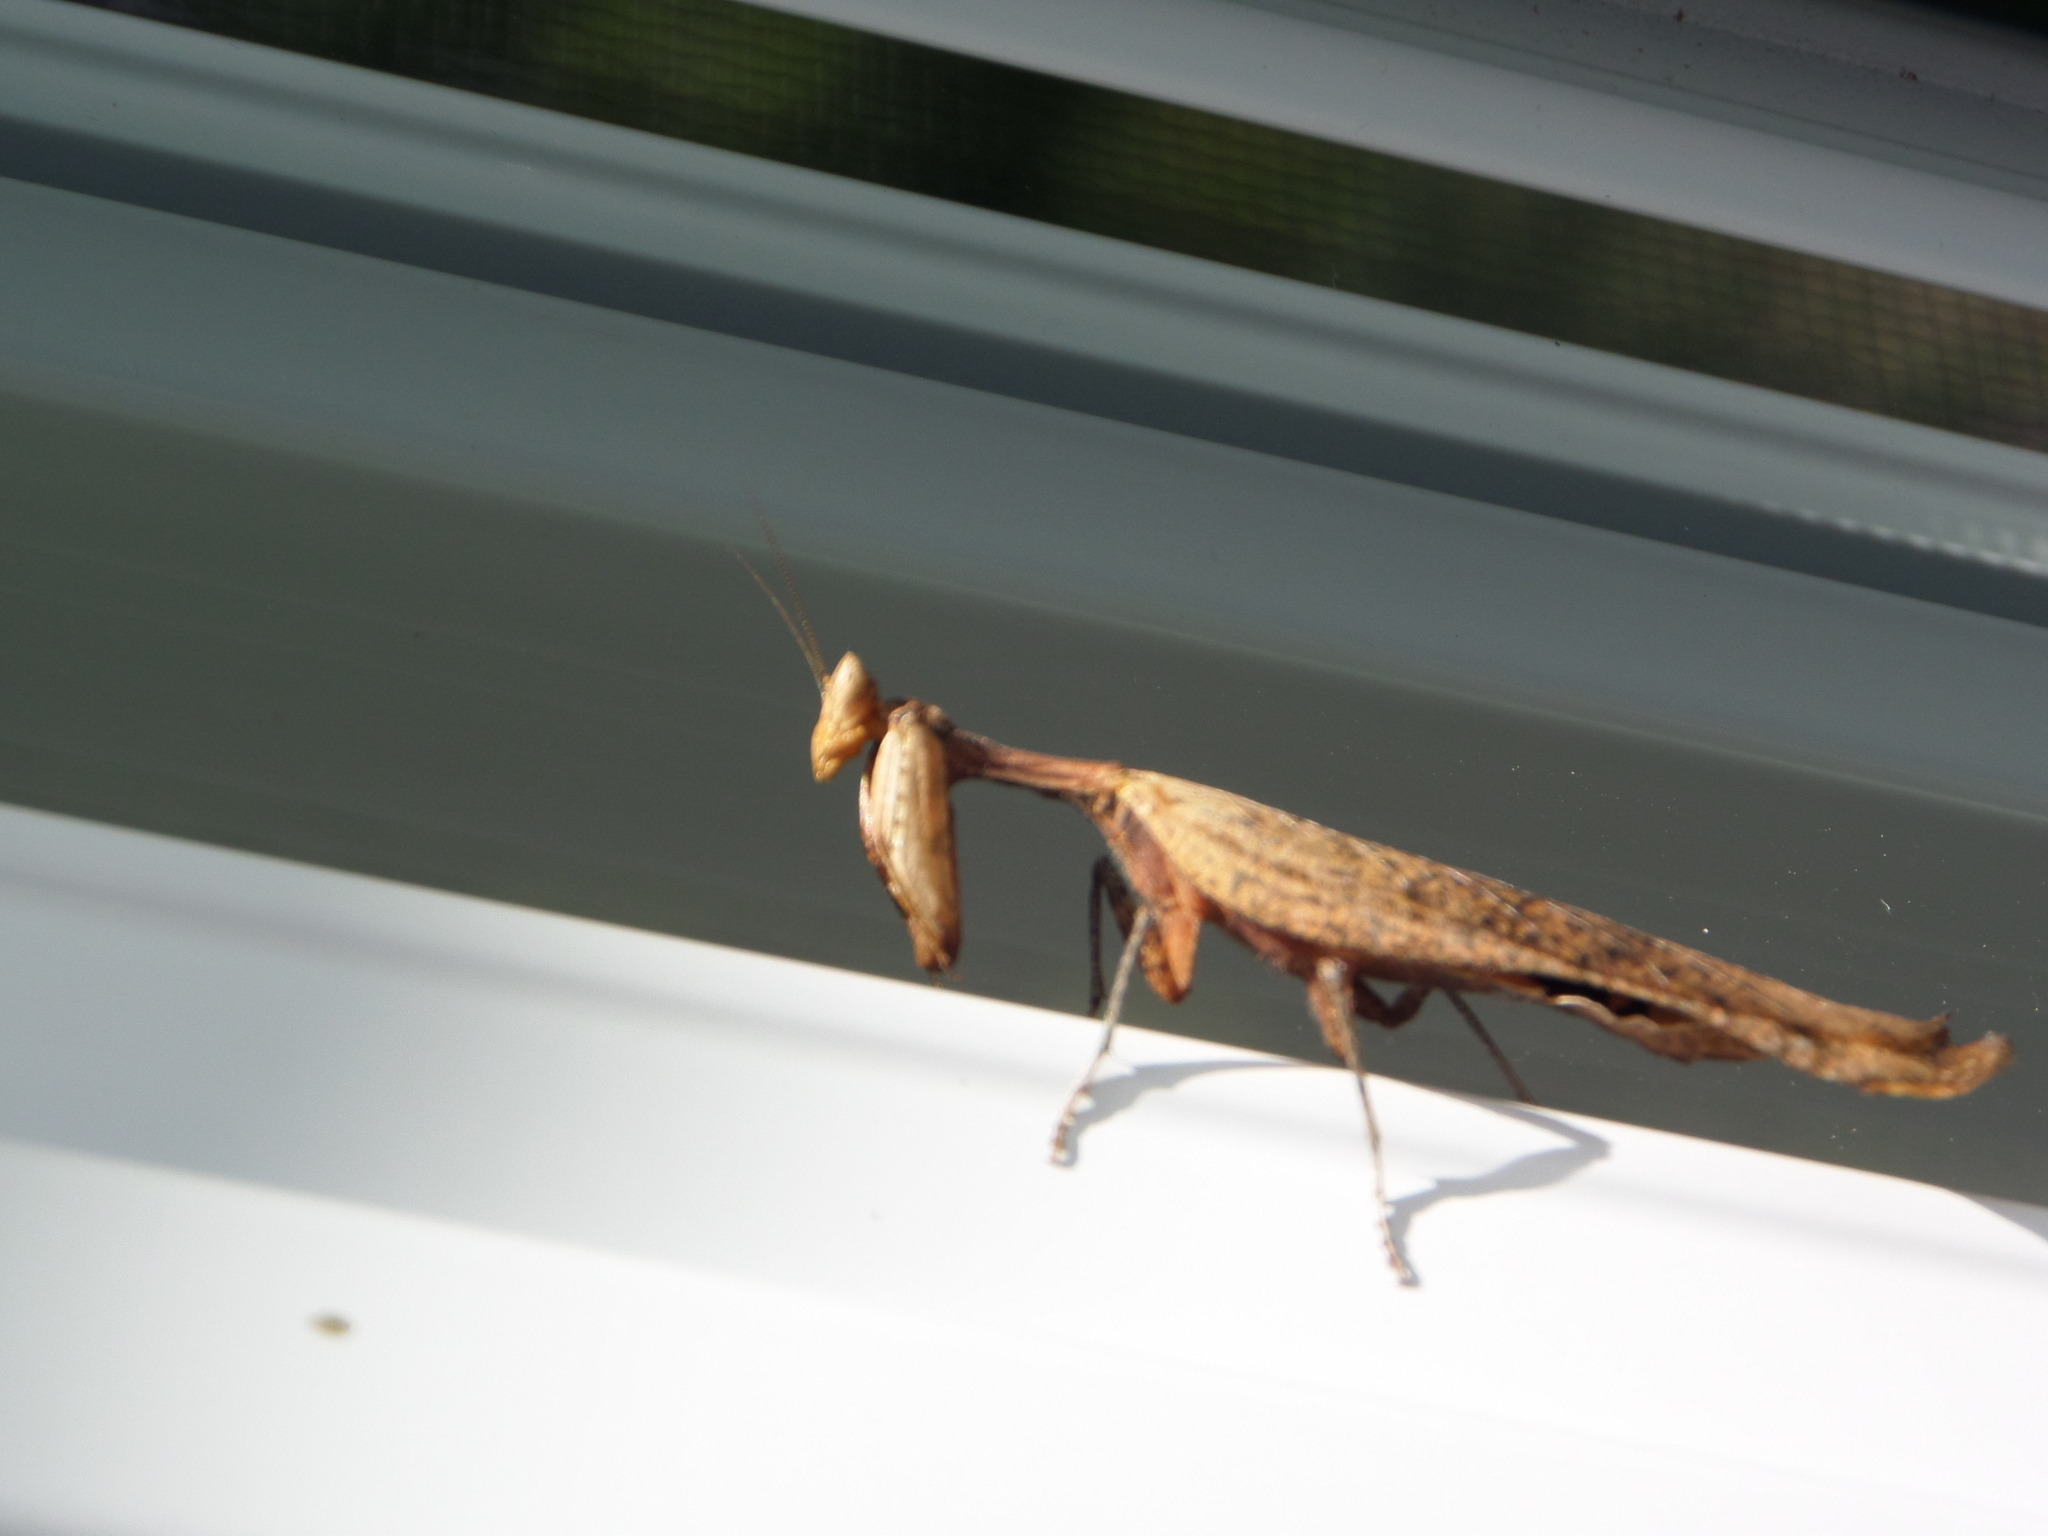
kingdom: Animalia
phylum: Arthropoda
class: Insecta
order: Mantodea
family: Acanthopidae
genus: Decimiana
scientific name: Decimiana rehni
